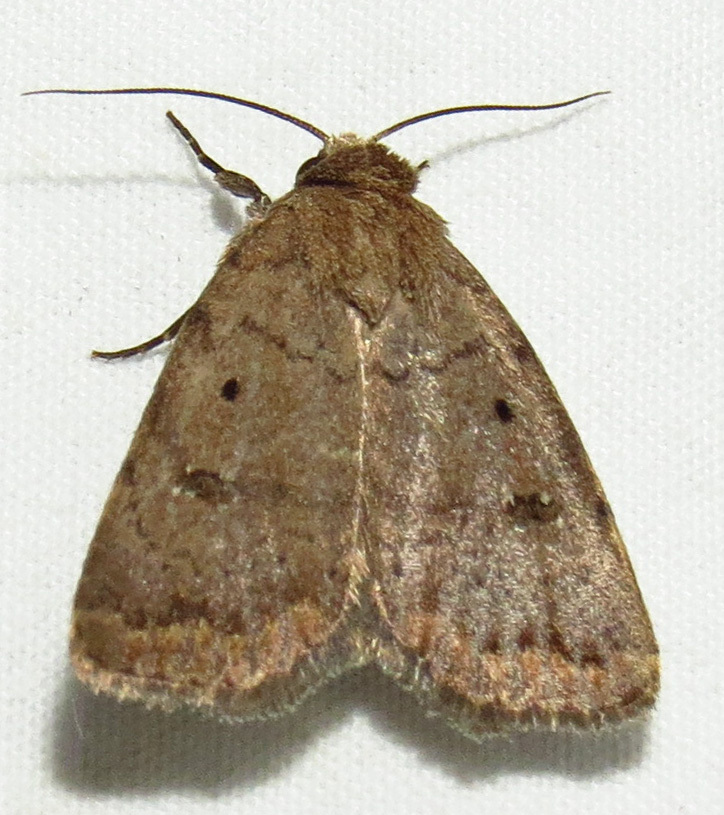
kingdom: Animalia
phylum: Arthropoda
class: Insecta
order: Lepidoptera
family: Noctuidae
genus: Athetis
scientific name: Athetis tarda
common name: Slowpoke moth
